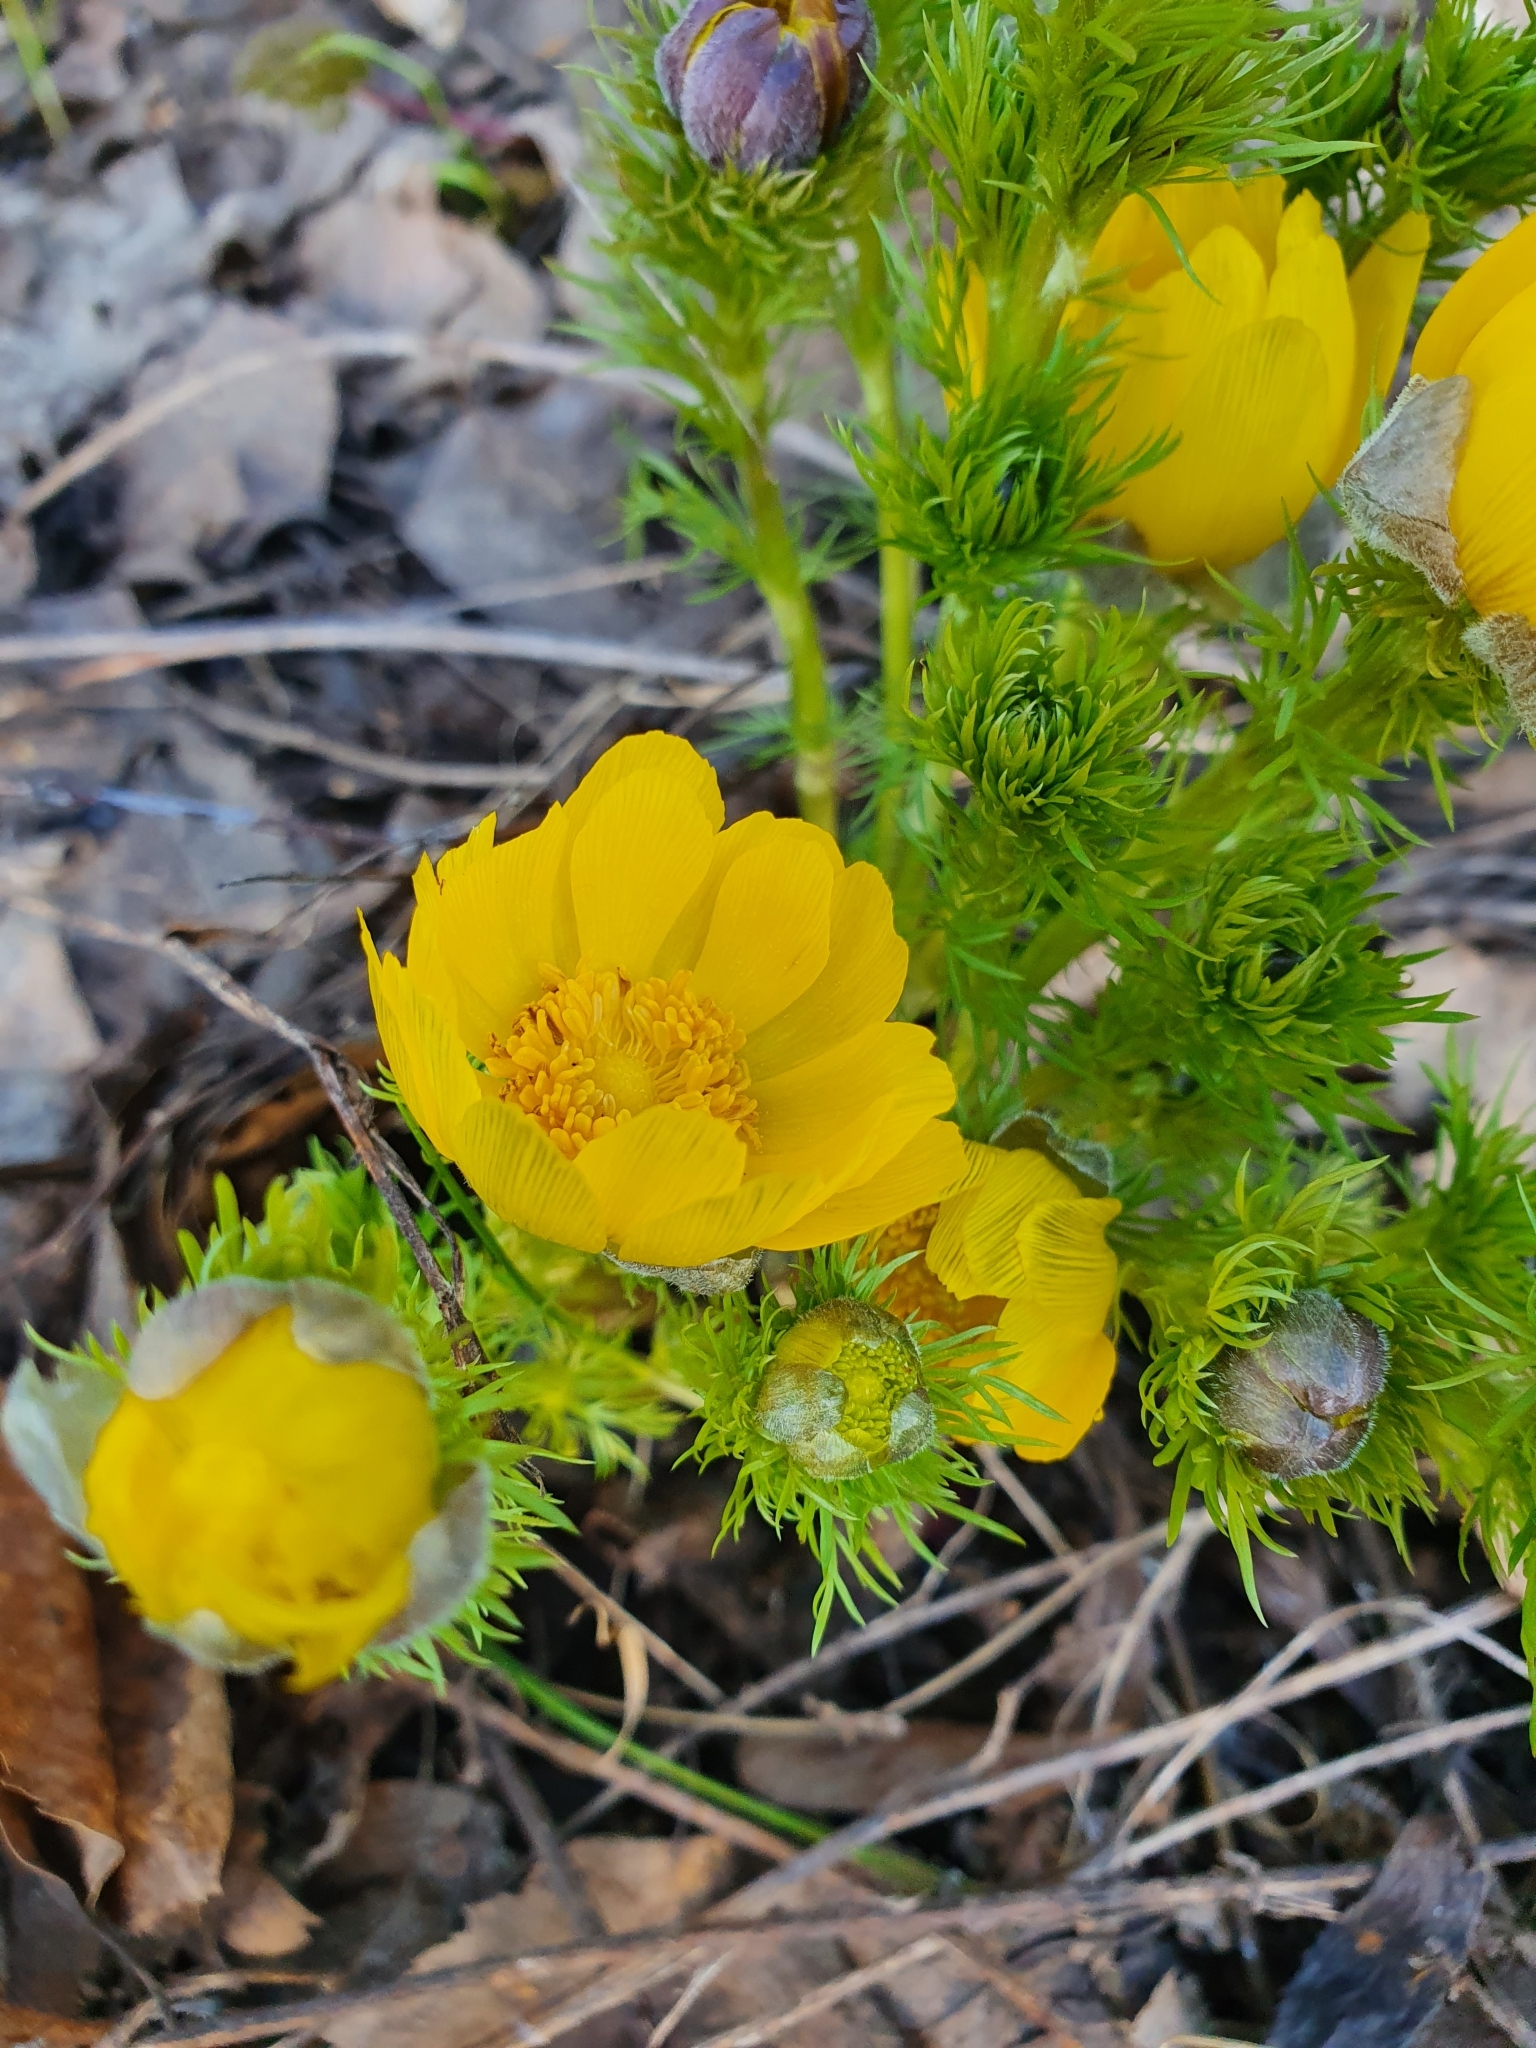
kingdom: Plantae
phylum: Tracheophyta
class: Magnoliopsida
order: Ranunculales
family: Ranunculaceae
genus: Adonis
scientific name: Adonis vernalis
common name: Yellow pheasants-eye
